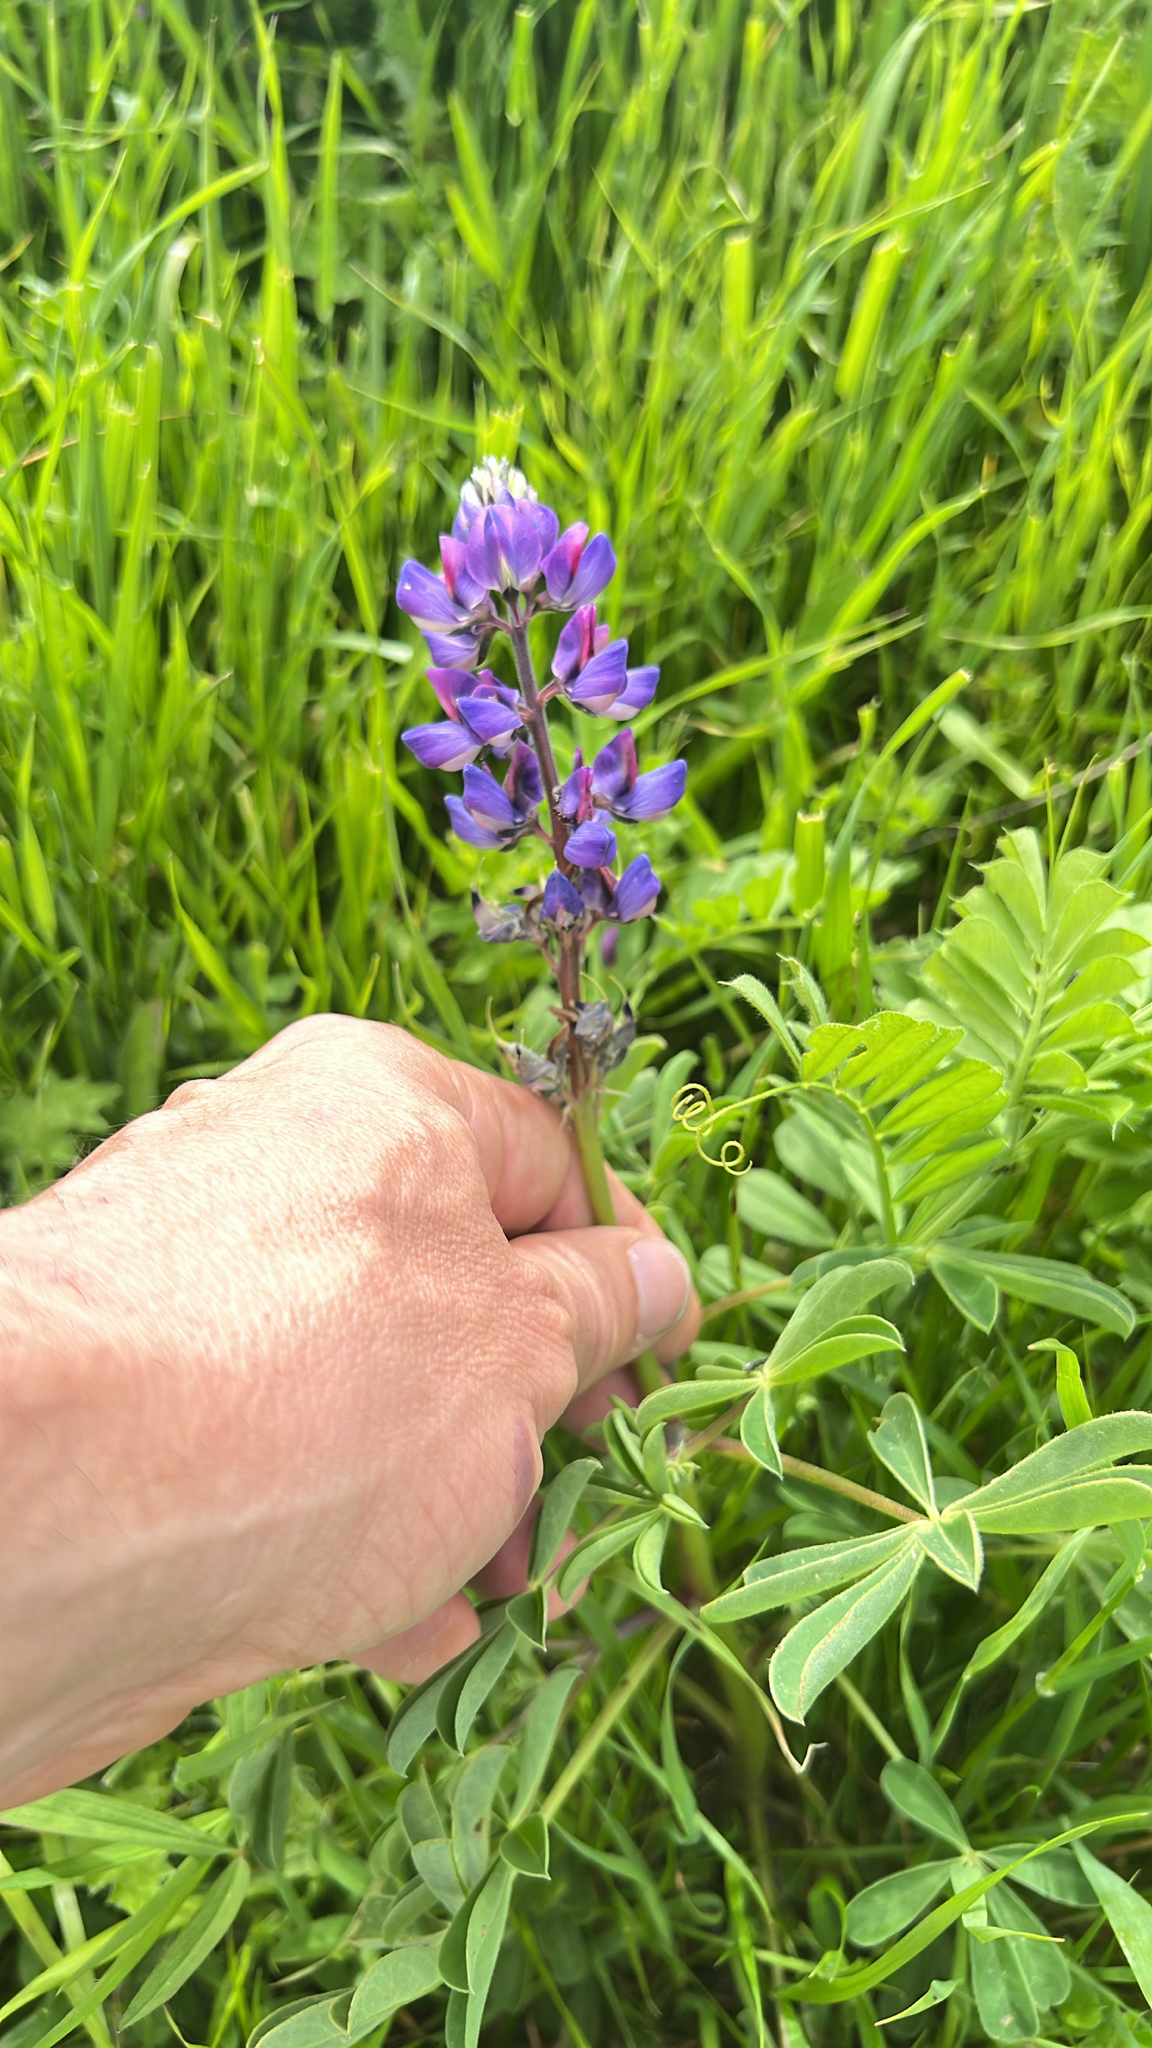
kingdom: Plantae
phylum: Tracheophyta
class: Magnoliopsida
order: Fabales
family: Fabaceae
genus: Lupinus
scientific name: Lupinus succulentus
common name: Arroyo lupine
